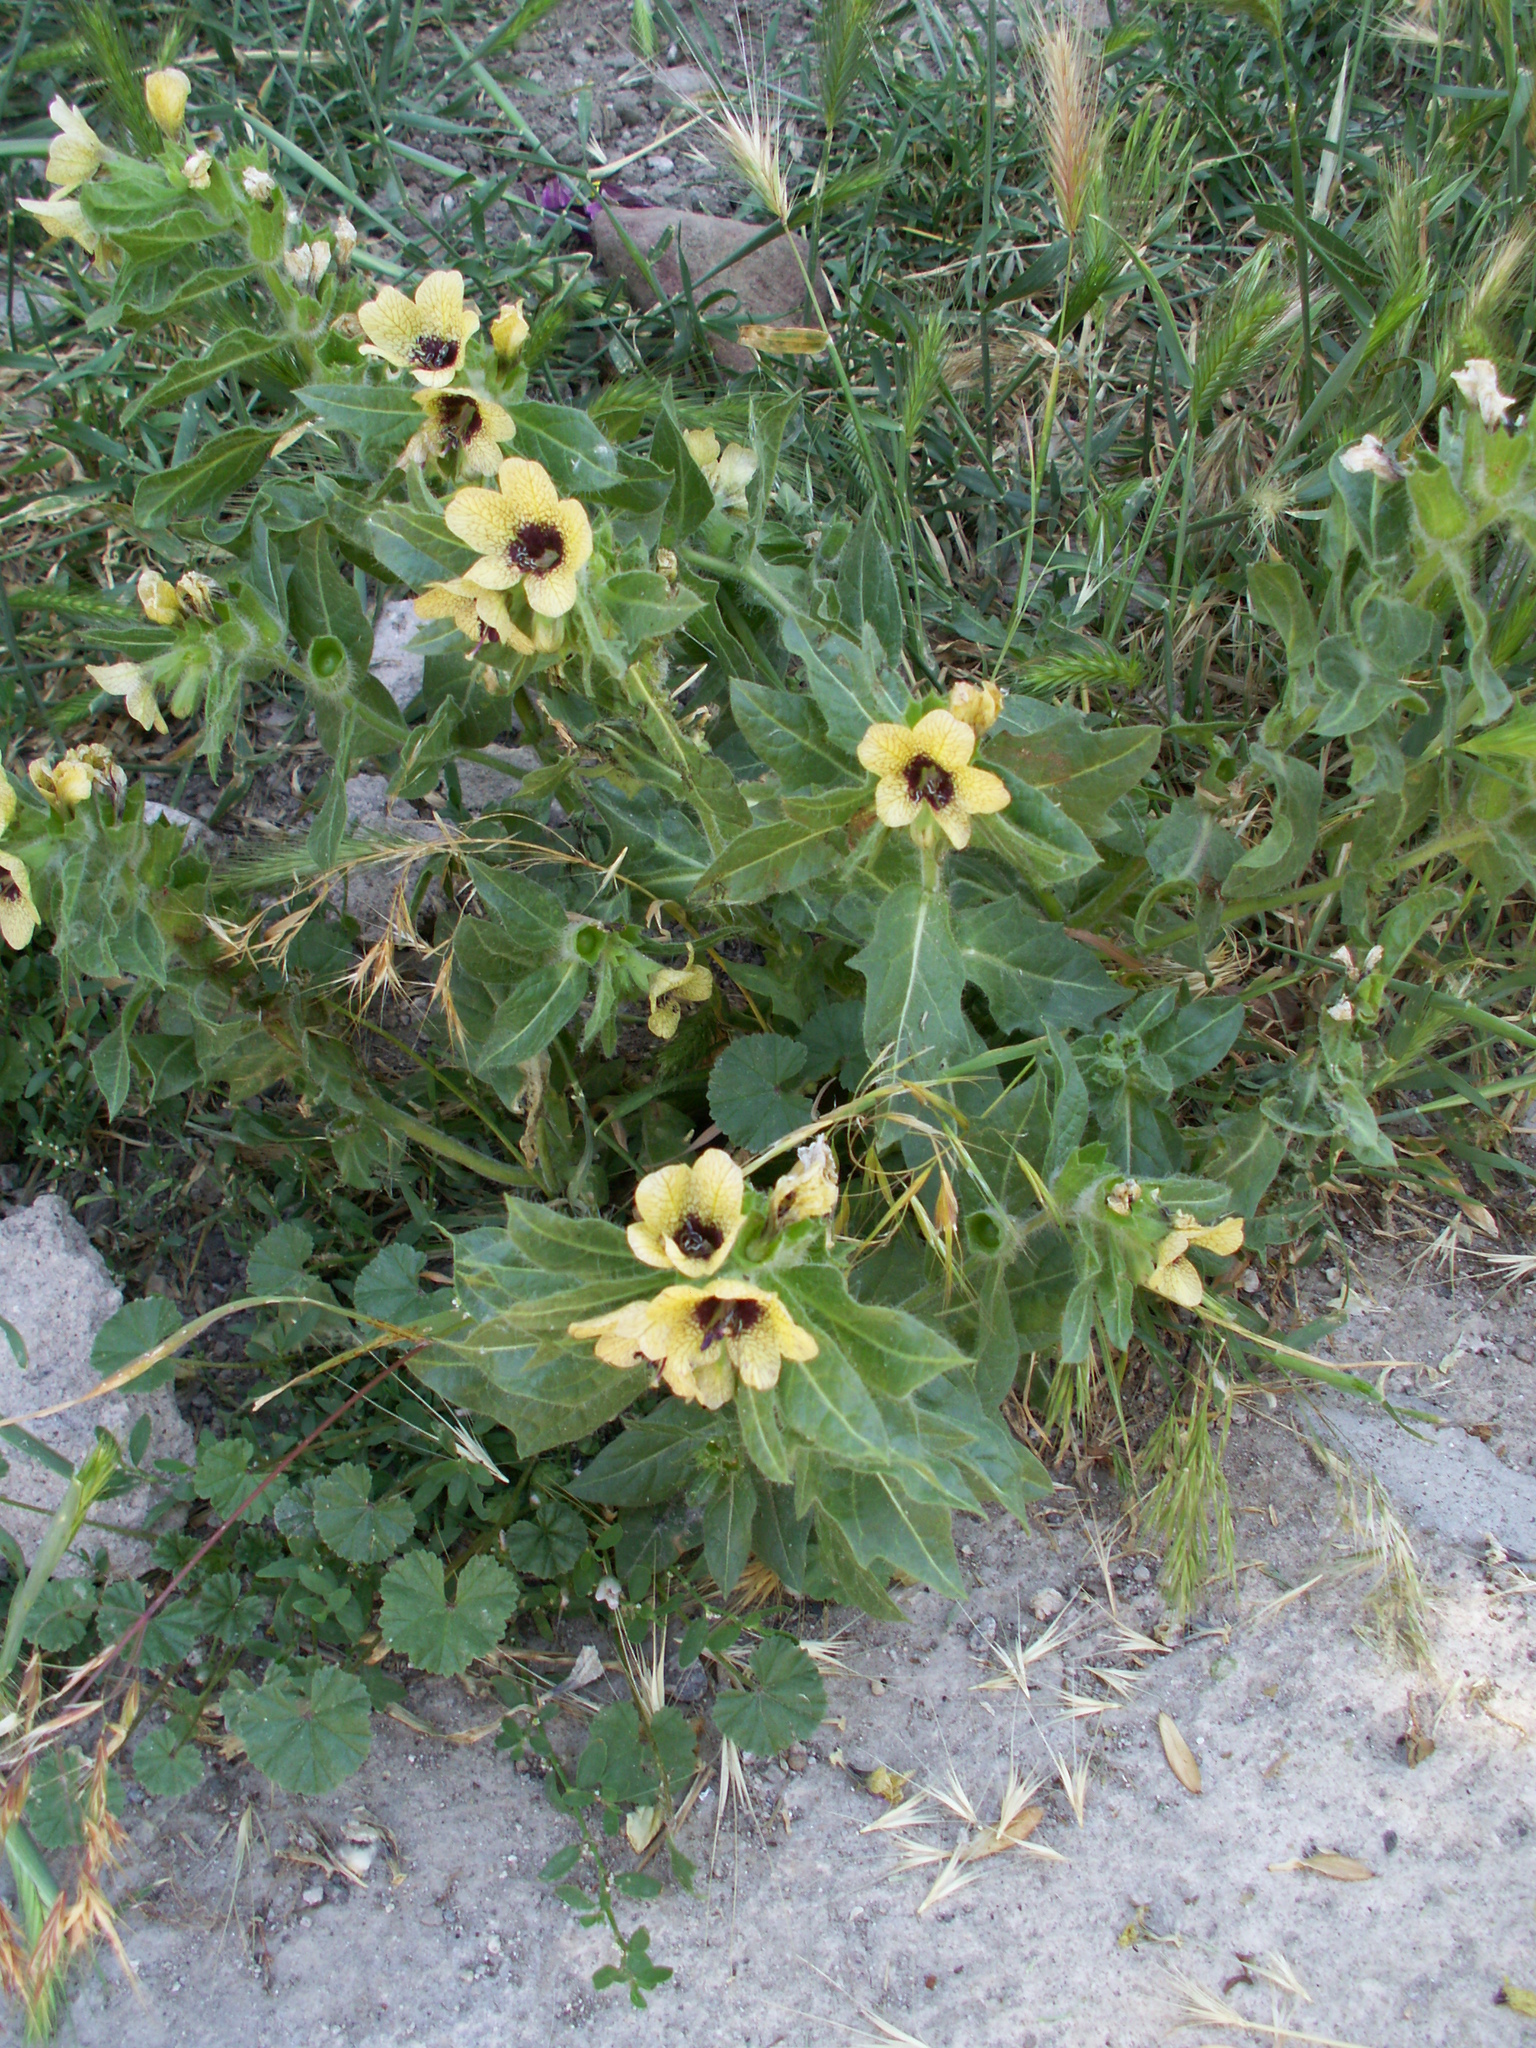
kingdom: Plantae
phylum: Tracheophyta
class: Magnoliopsida
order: Solanales
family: Solanaceae
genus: Hyoscyamus
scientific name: Hyoscyamus niger
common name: Henbane
